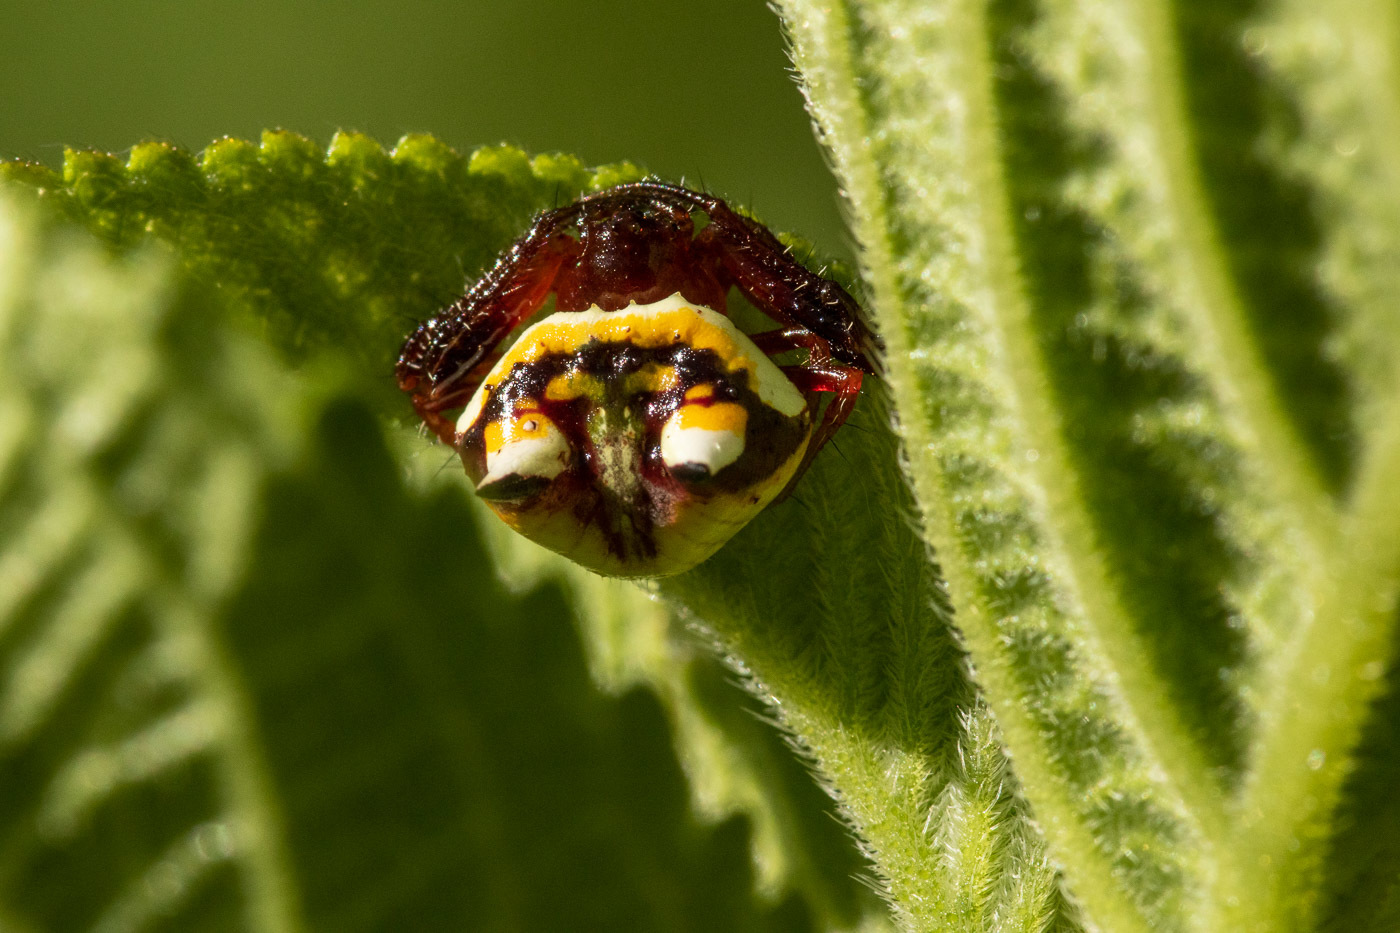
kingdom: Animalia
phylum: Arthropoda
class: Arachnida
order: Araneae
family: Araneidae
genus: Poecilopachys
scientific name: Poecilopachys australasia
